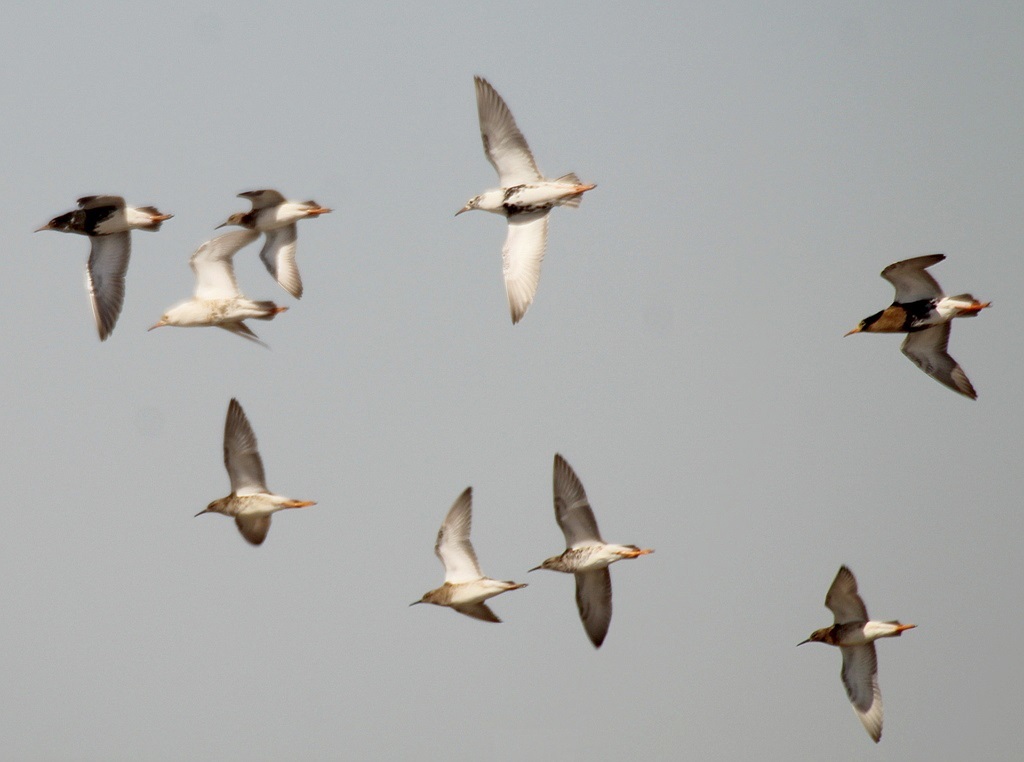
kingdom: Animalia
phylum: Chordata
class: Aves
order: Charadriiformes
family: Scolopacidae
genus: Calidris
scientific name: Calidris pugnax
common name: Ruff
